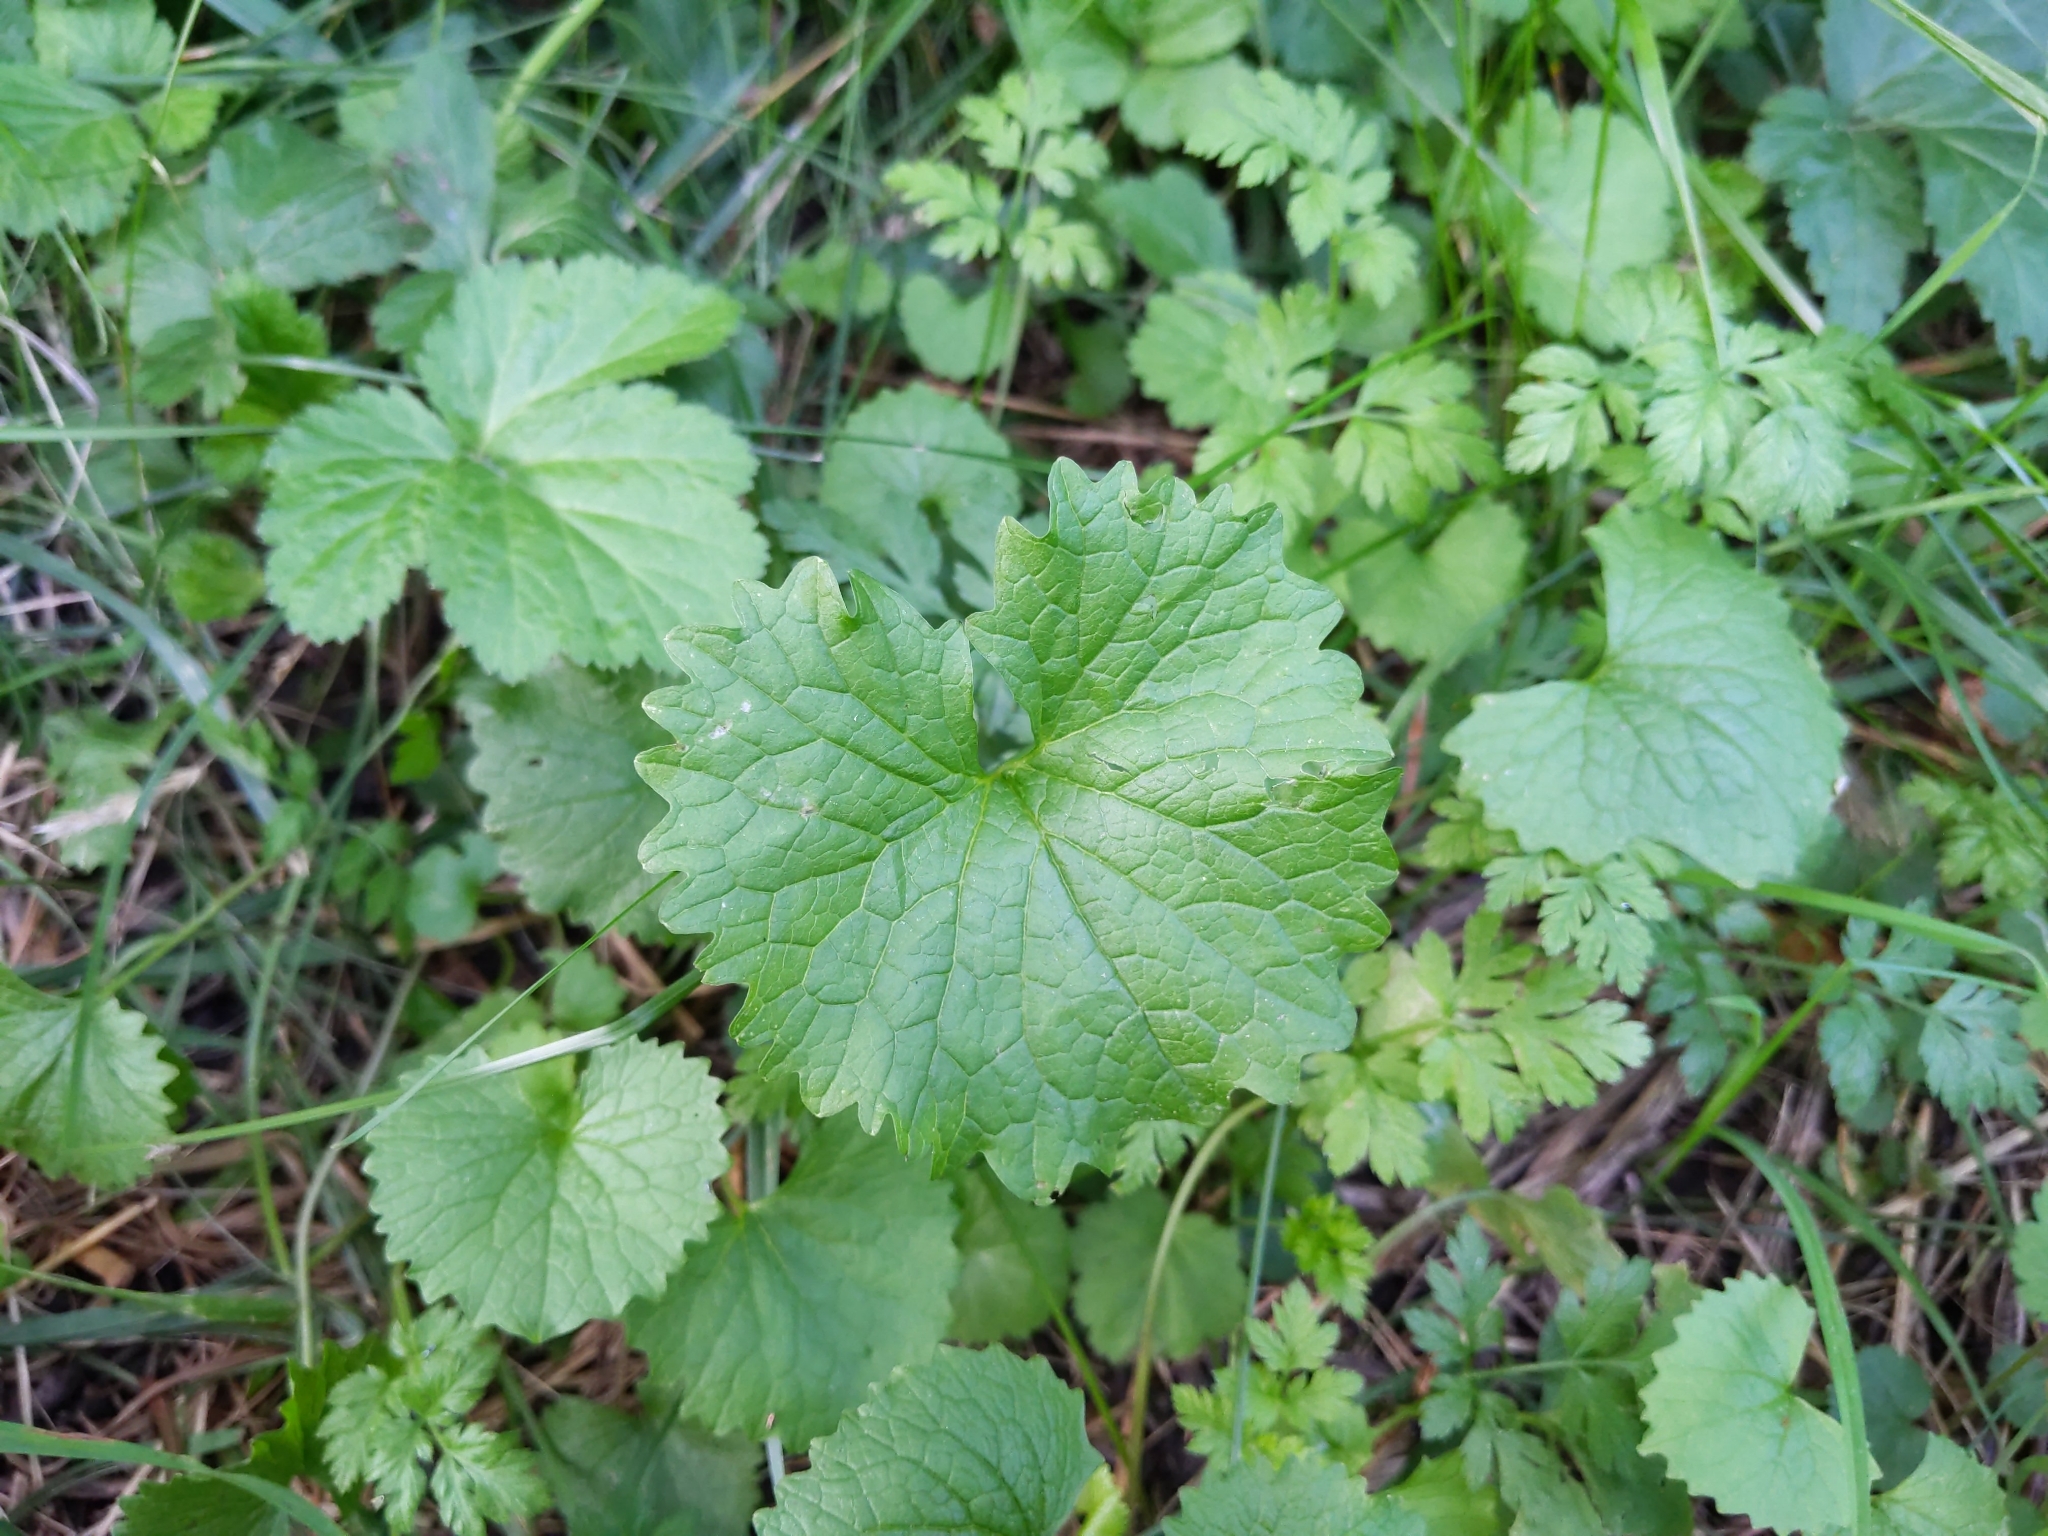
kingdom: Plantae
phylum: Tracheophyta
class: Magnoliopsida
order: Brassicales
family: Brassicaceae
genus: Alliaria
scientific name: Alliaria petiolata
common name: Garlic mustard
